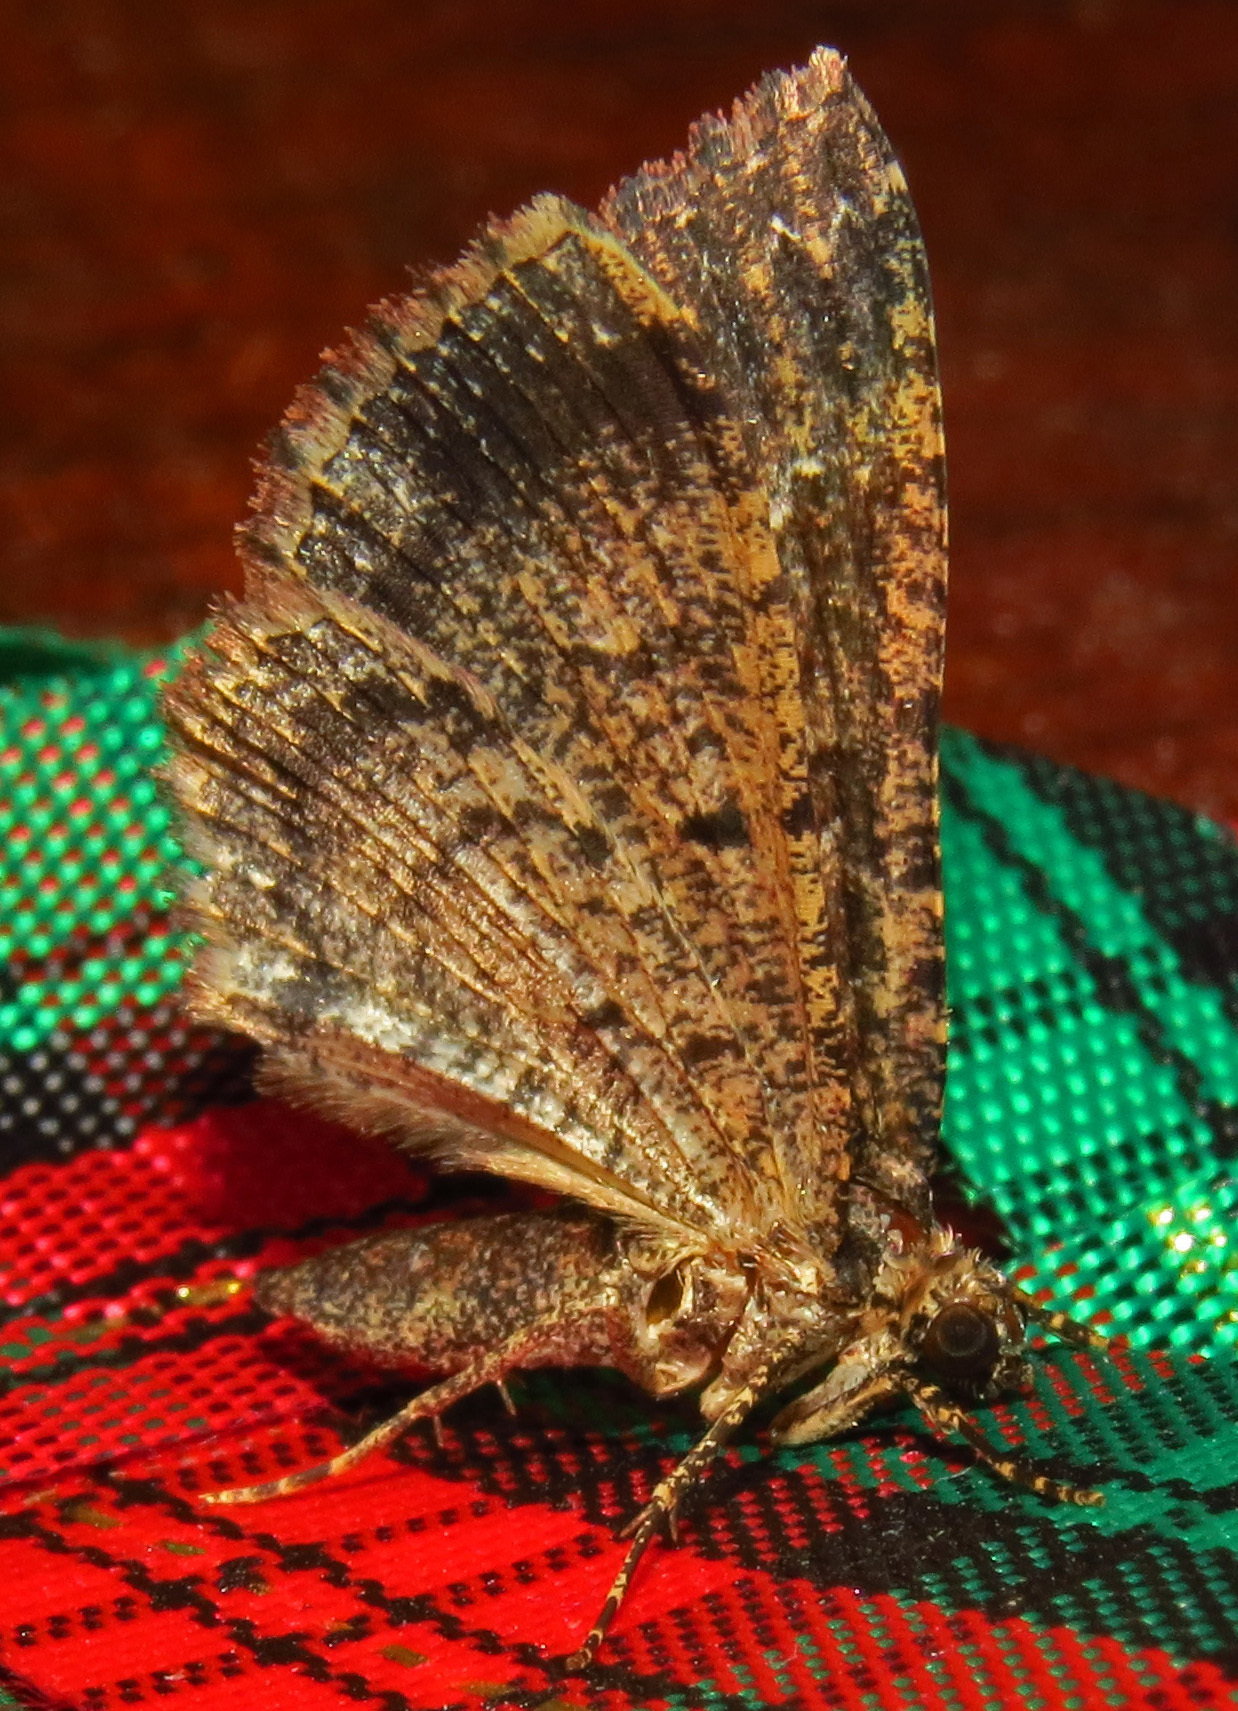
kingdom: Animalia
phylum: Arthropoda
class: Insecta
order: Lepidoptera
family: Geometridae
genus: Disclisioprocta
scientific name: Disclisioprocta stellata
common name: Somber carpet
